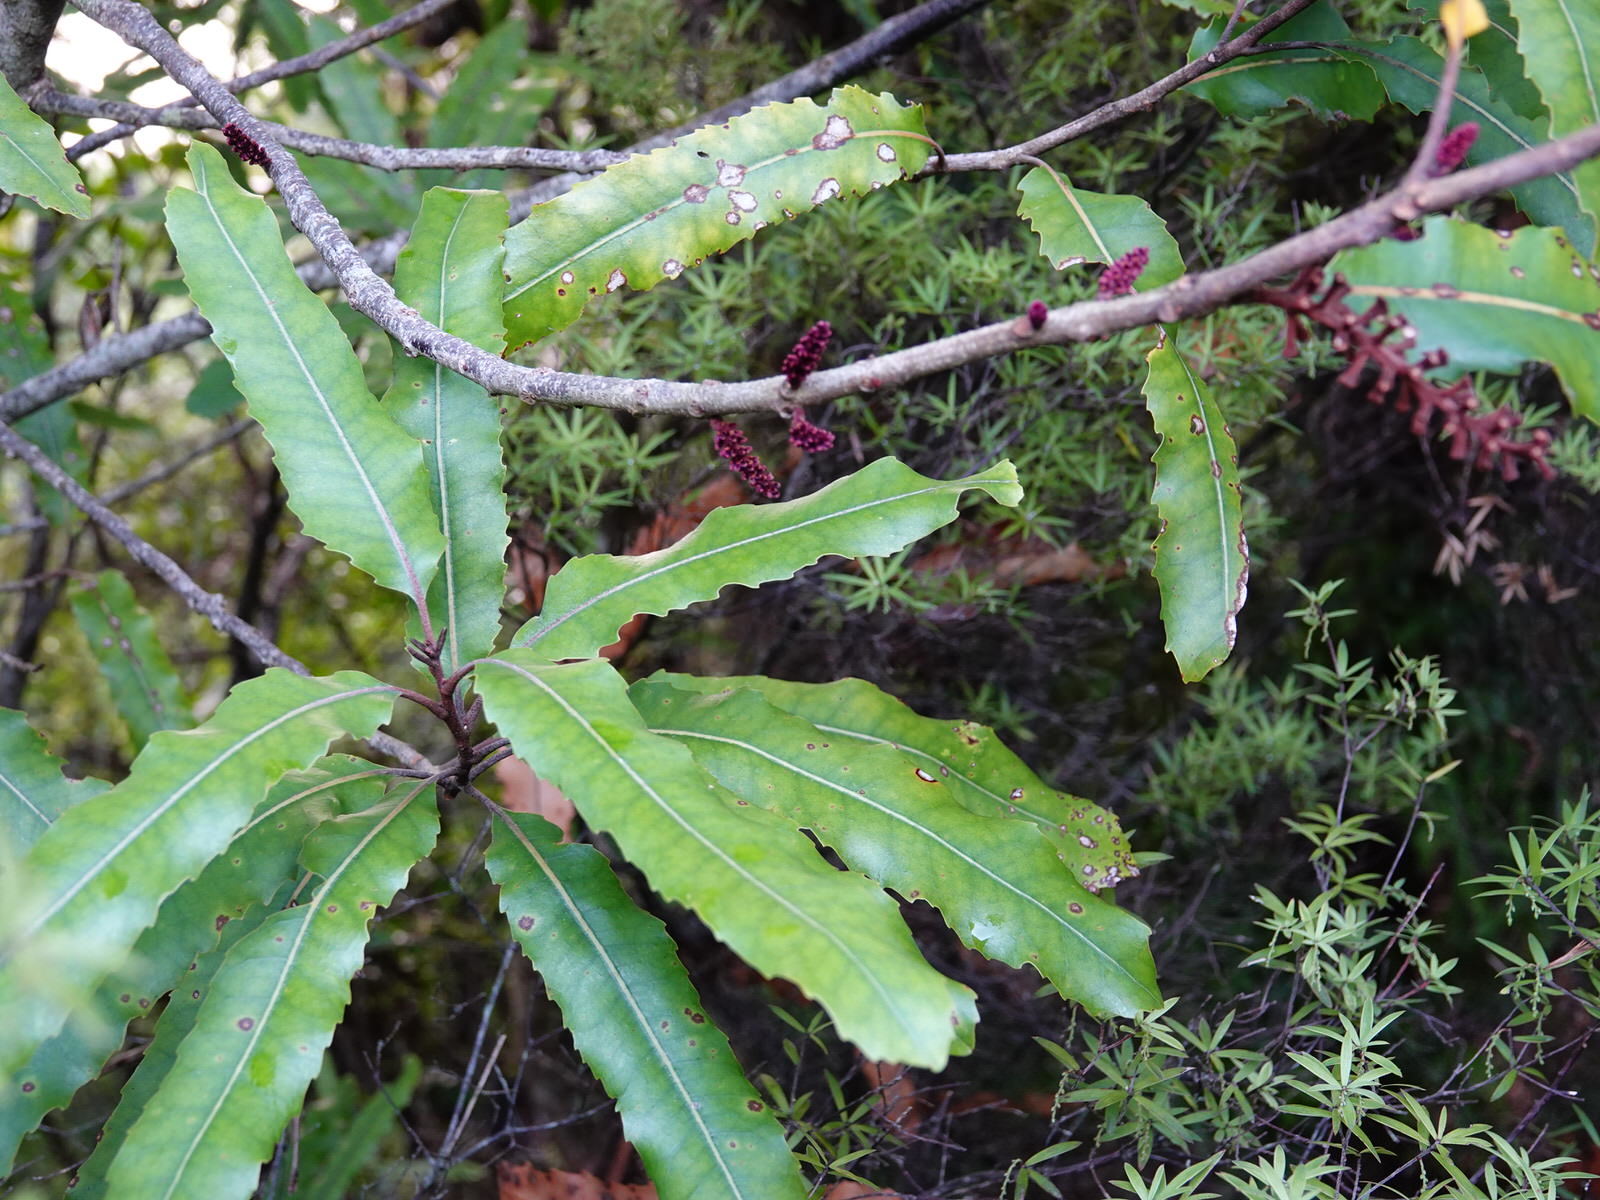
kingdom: Plantae
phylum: Tracheophyta
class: Magnoliopsida
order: Proteales
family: Proteaceae
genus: Knightia
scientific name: Knightia excelsa
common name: New zealand-honeysuckle
